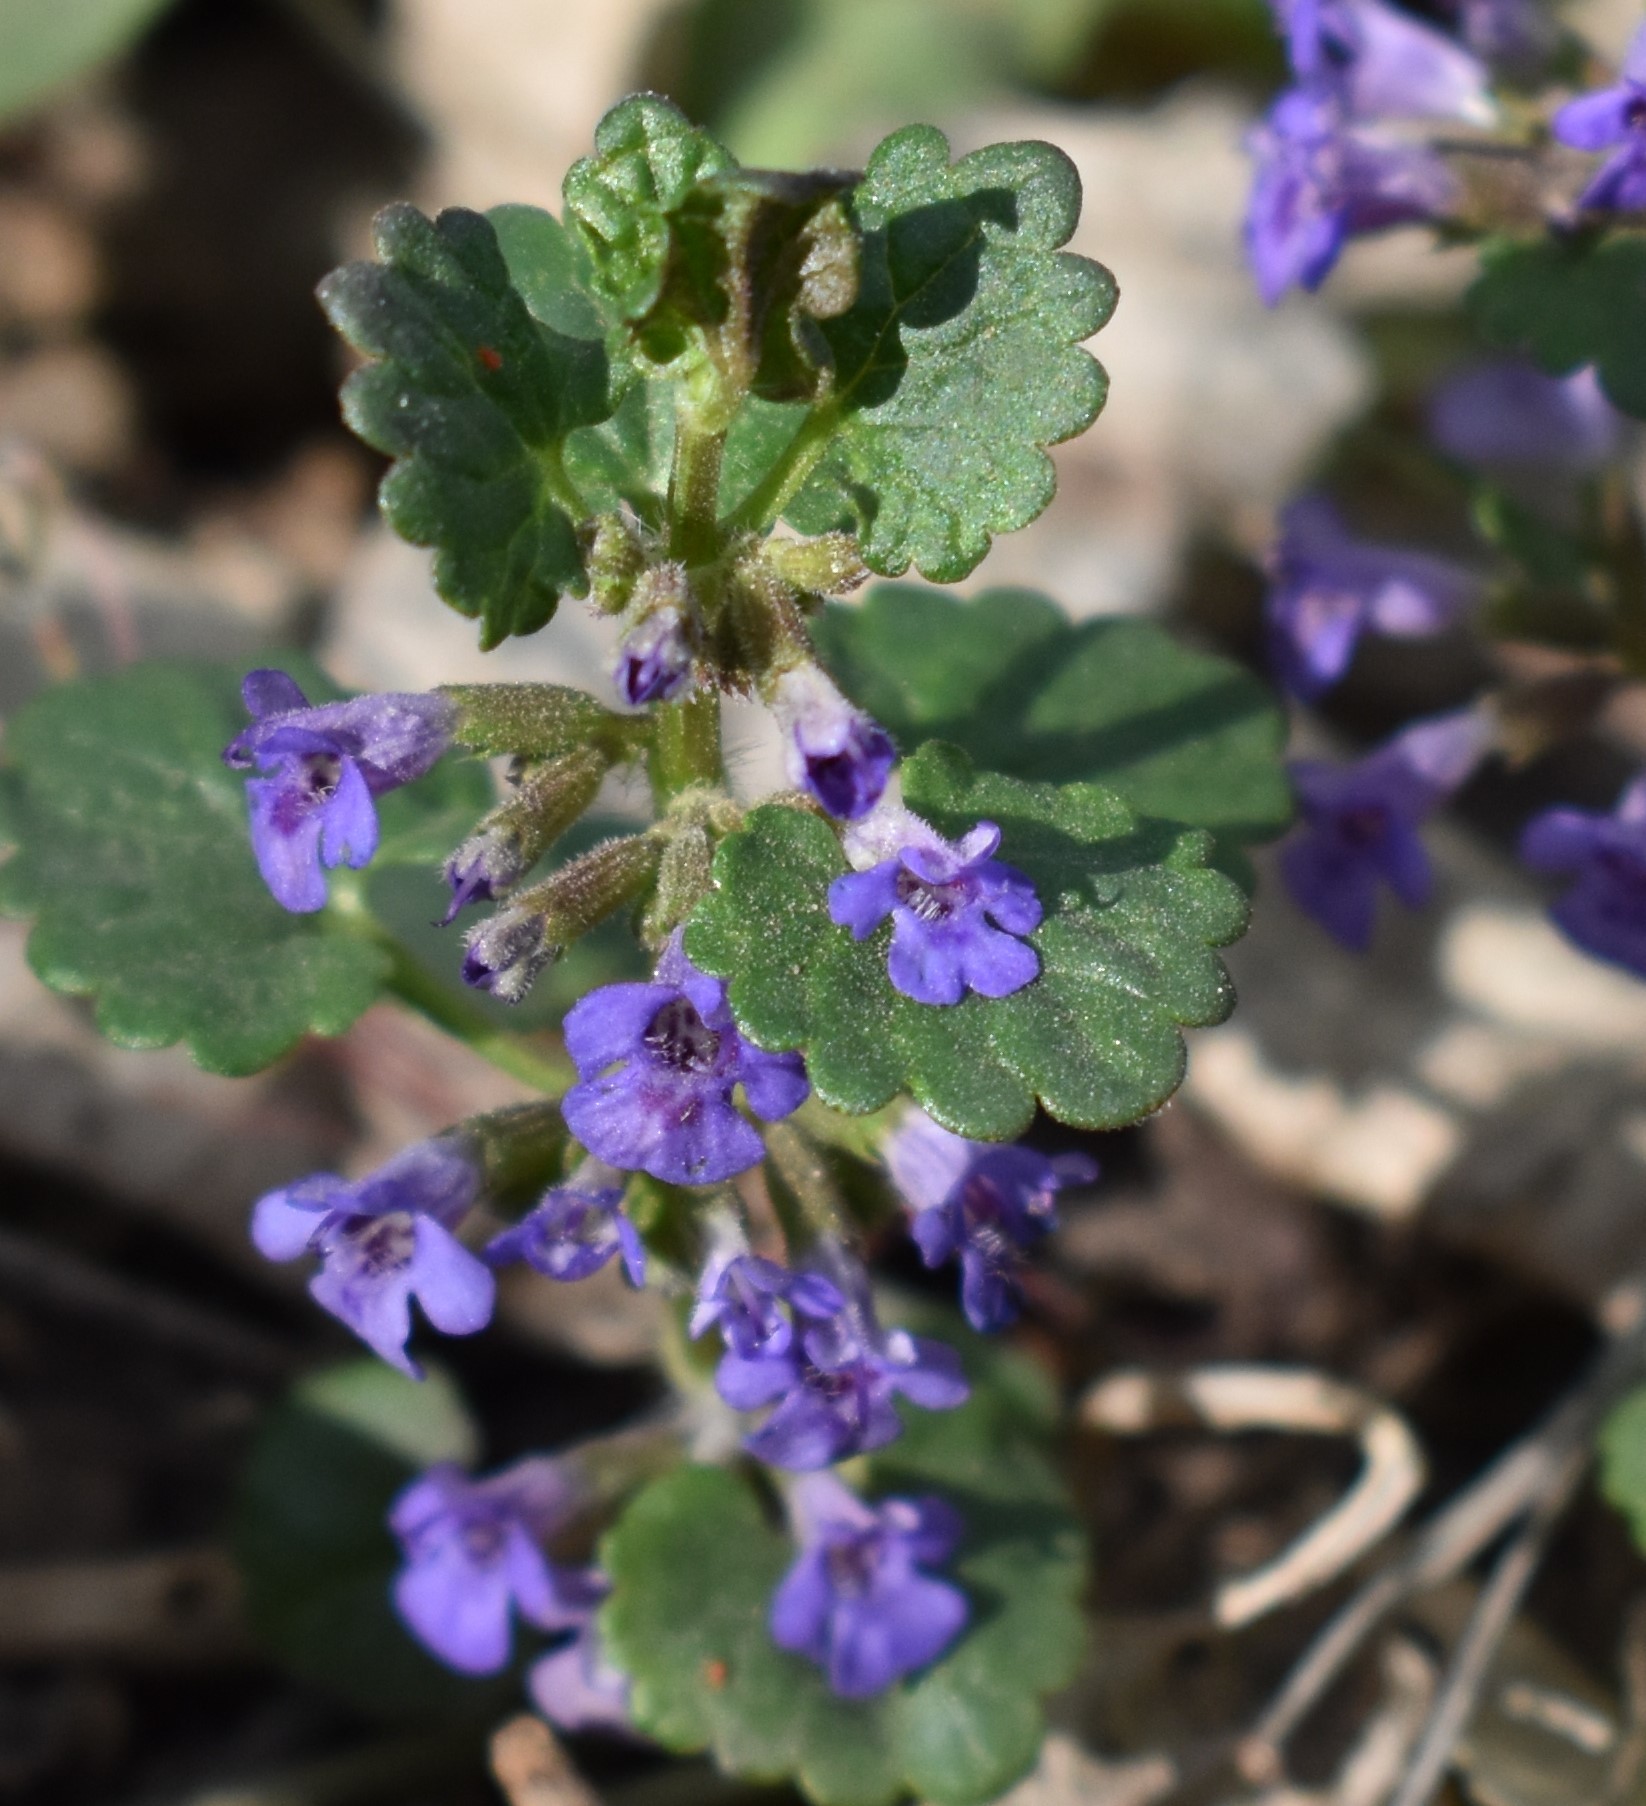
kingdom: Plantae
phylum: Tracheophyta
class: Magnoliopsida
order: Lamiales
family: Lamiaceae
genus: Glechoma
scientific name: Glechoma hederacea
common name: Ground ivy
